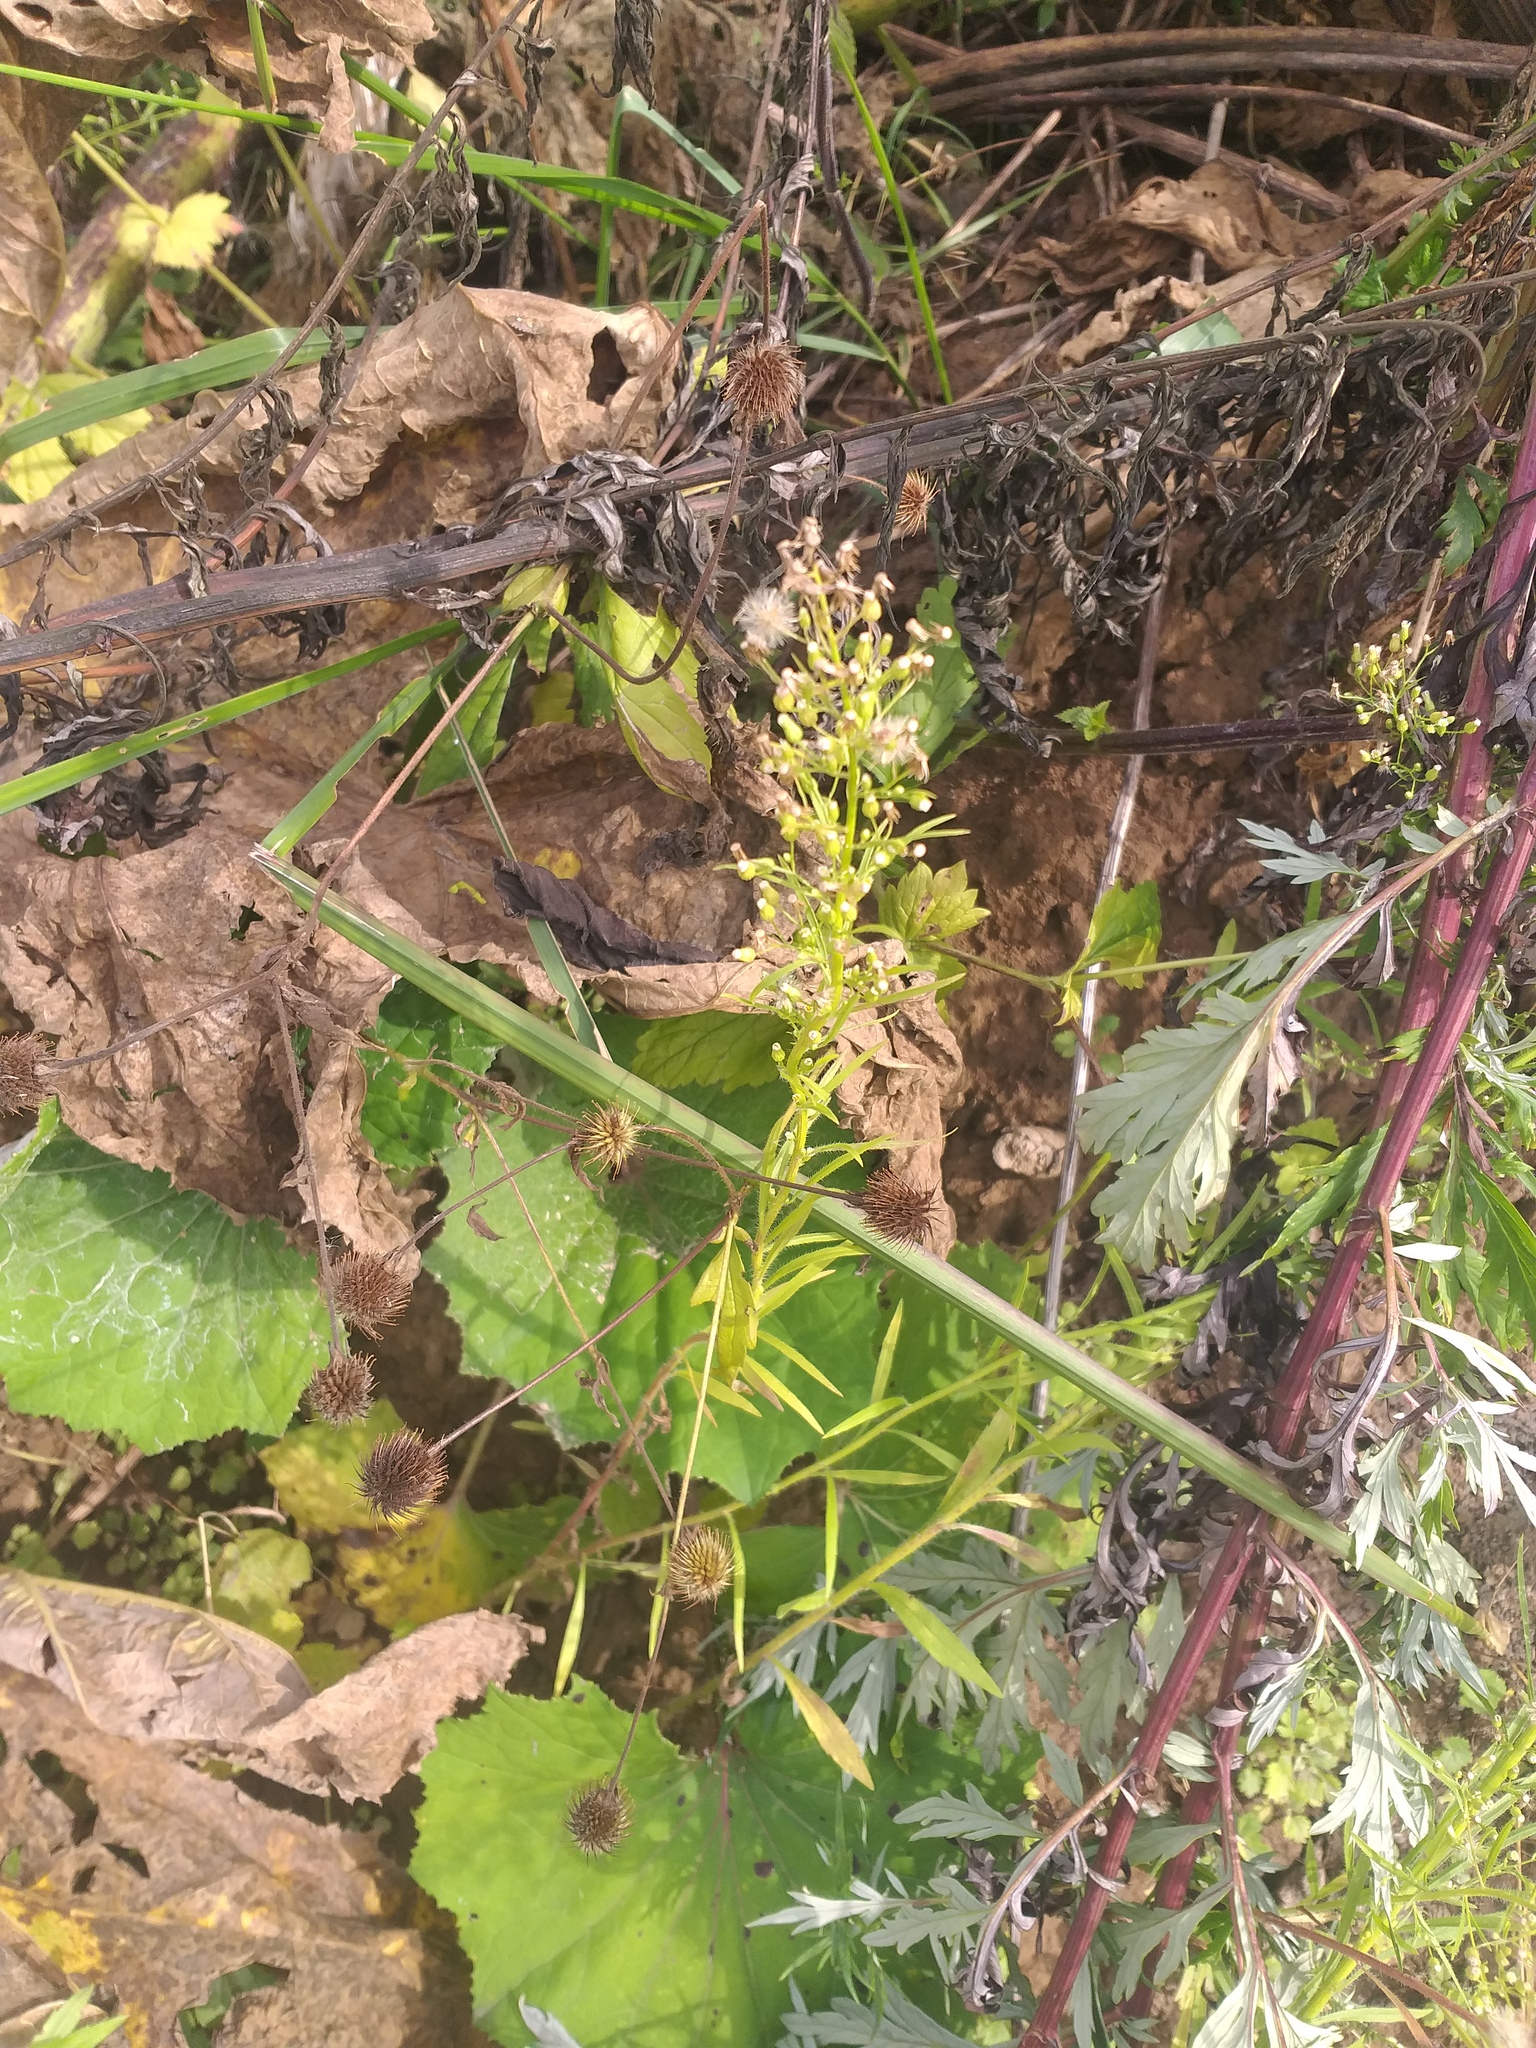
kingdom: Plantae
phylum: Tracheophyta
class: Magnoliopsida
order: Rosales
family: Rosaceae
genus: Geum
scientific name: Geum aleppicum
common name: Yellow avens
